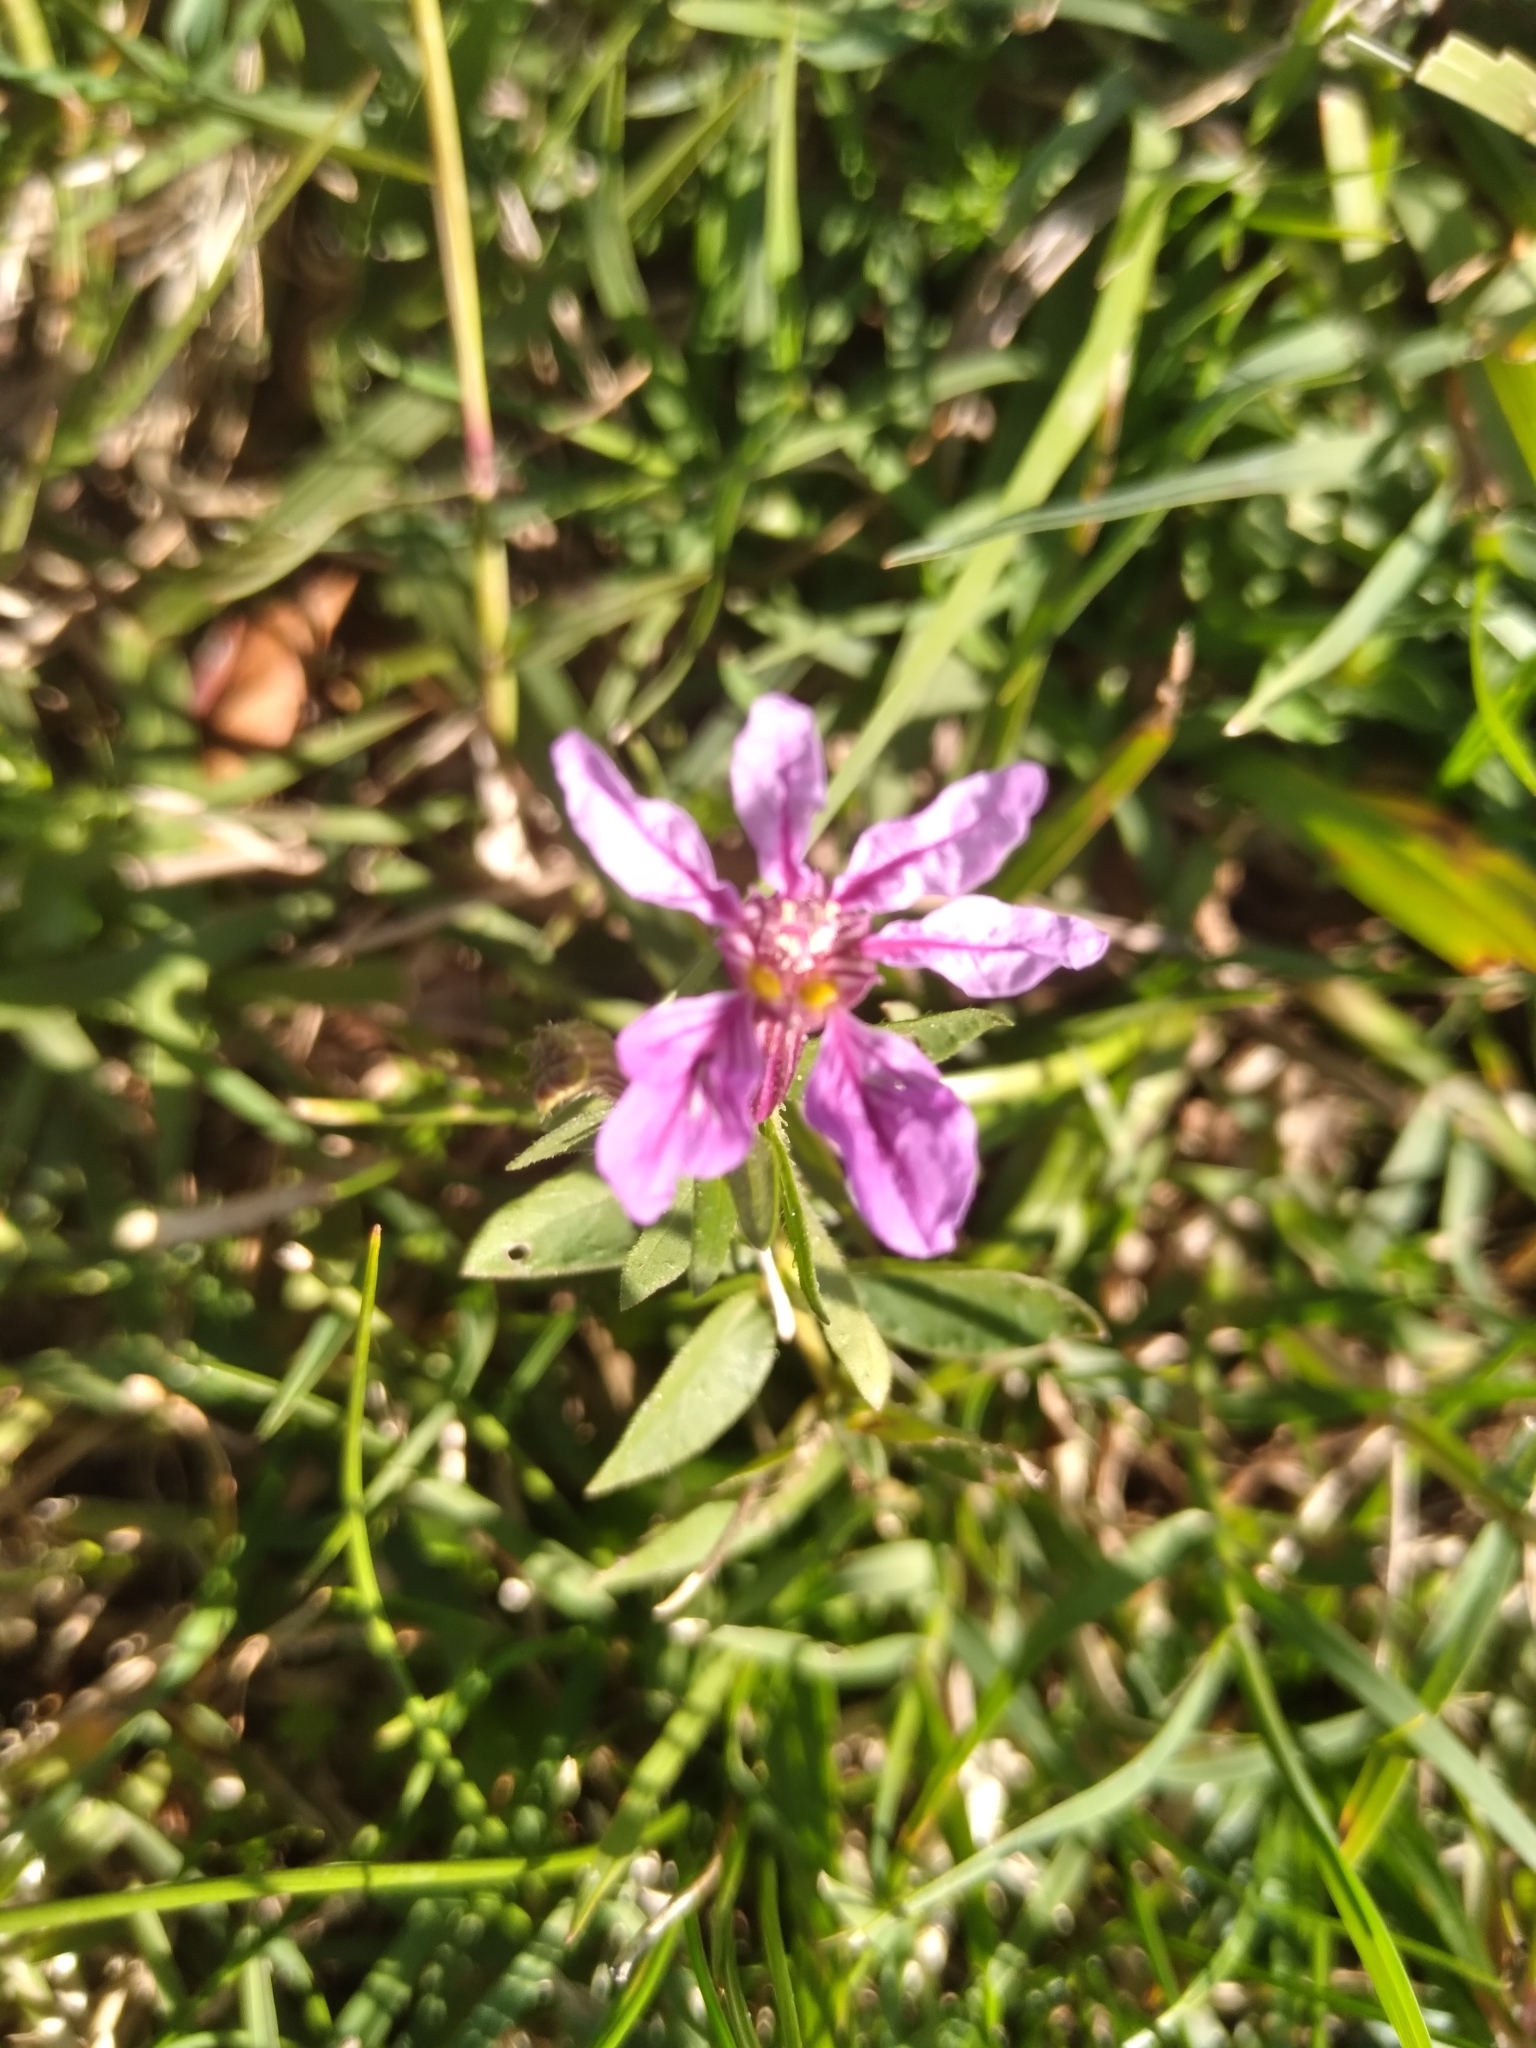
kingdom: Plantae
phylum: Tracheophyta
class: Magnoliopsida
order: Myrtales
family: Lythraceae
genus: Cuphea
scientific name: Cuphea glutinosa
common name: Sticky waxweed
